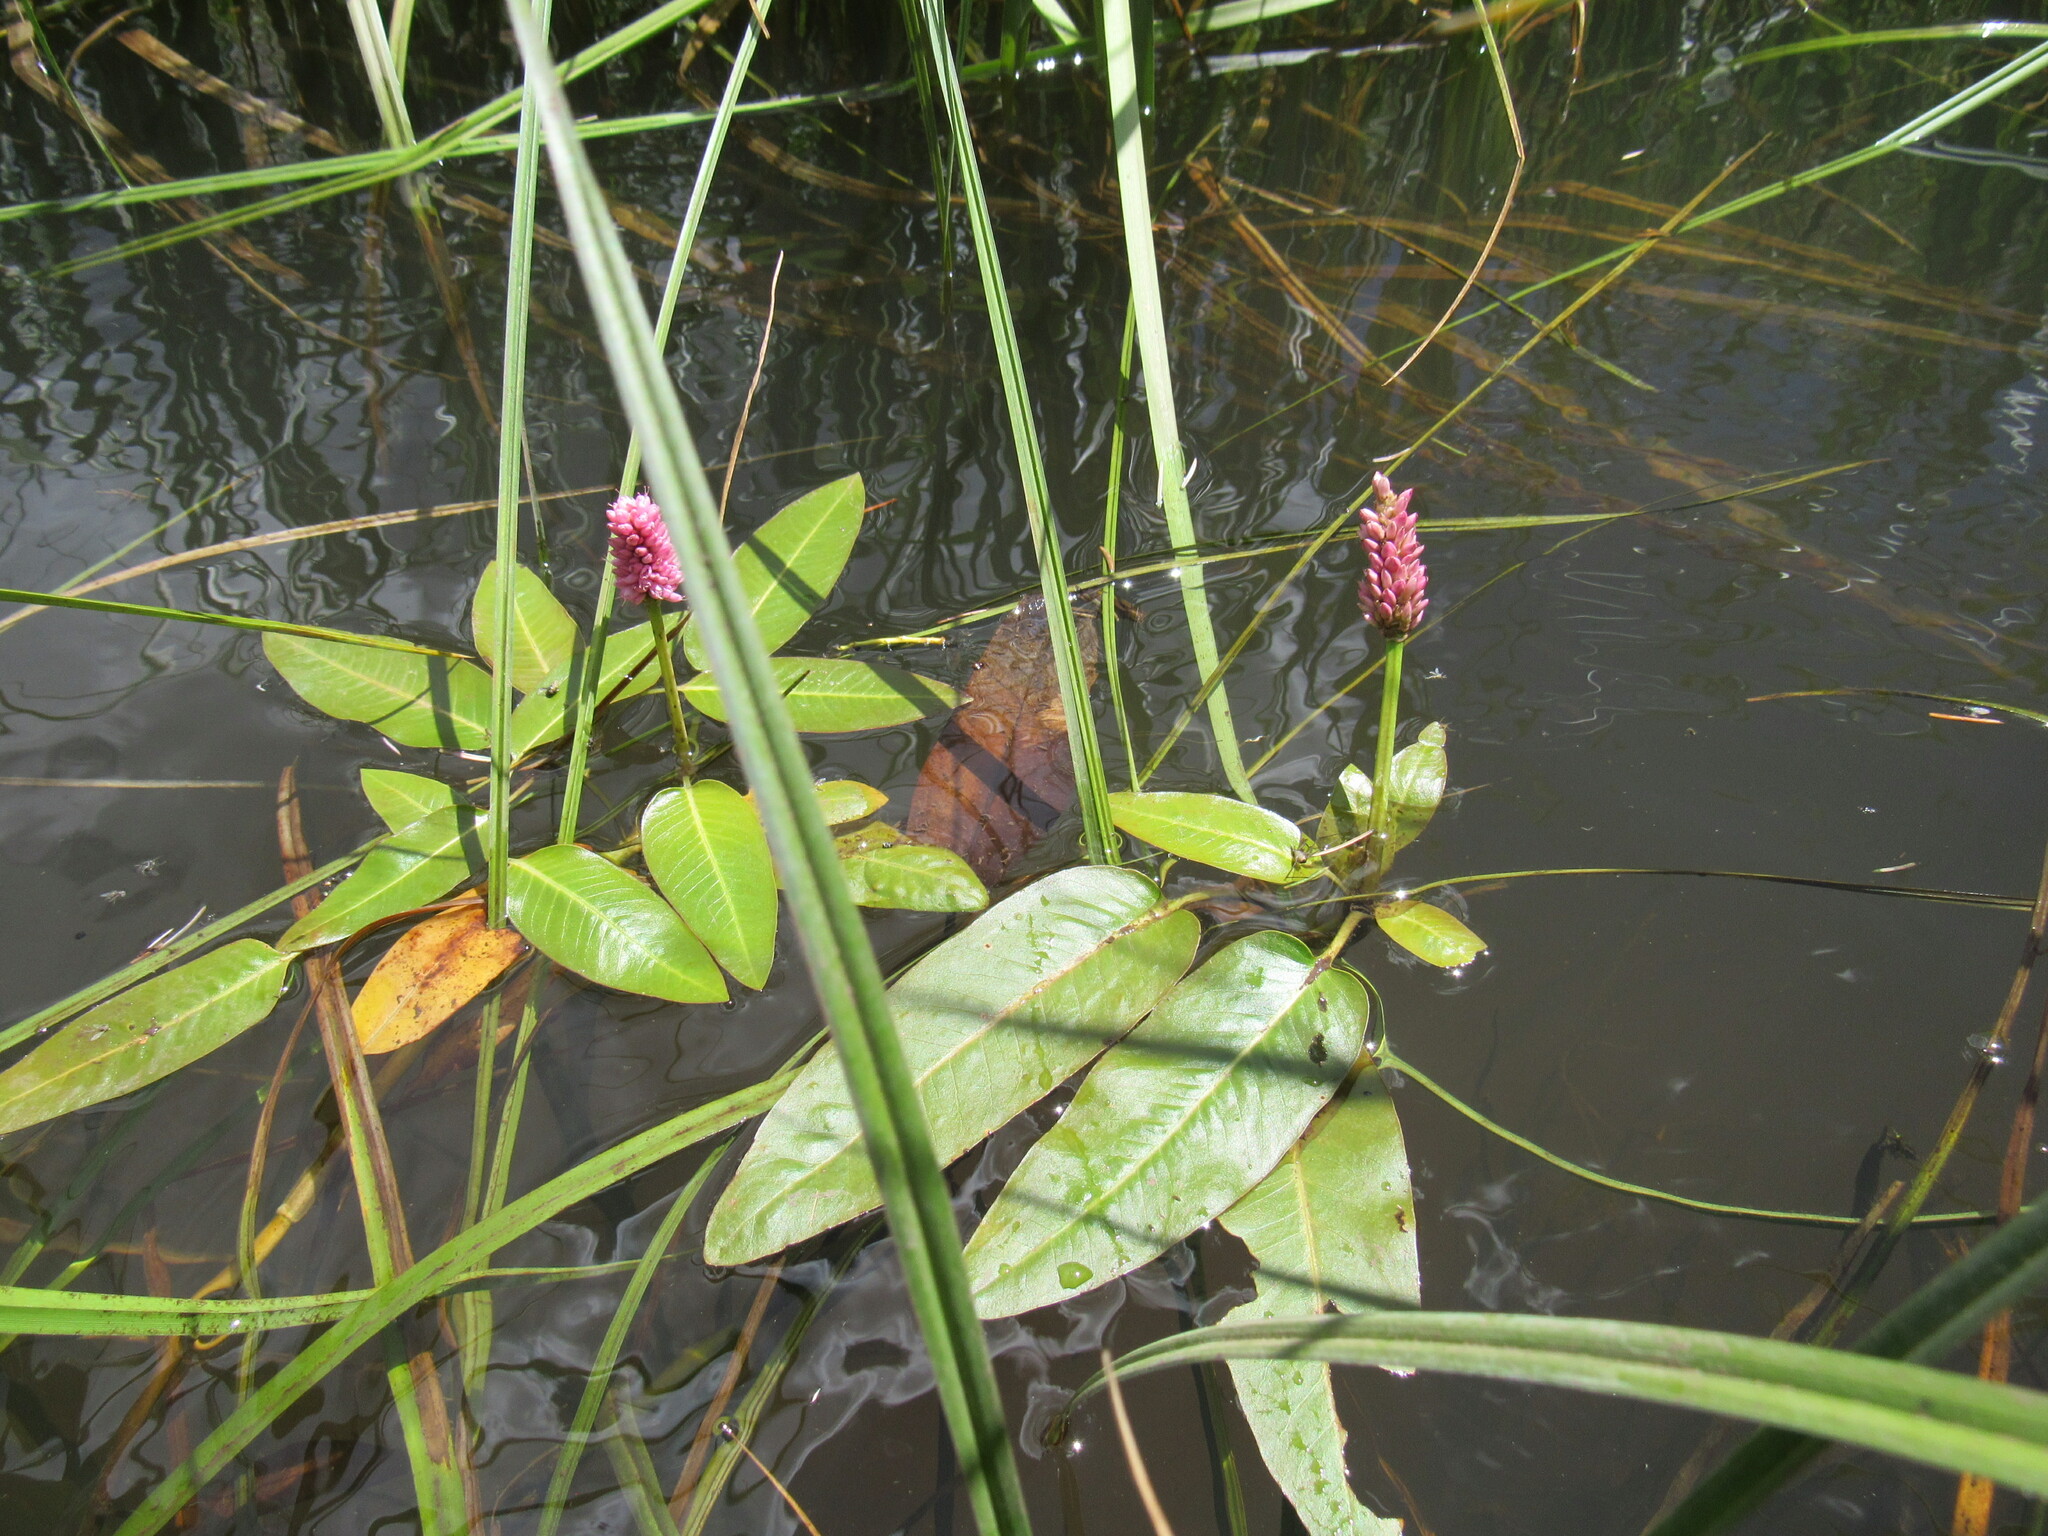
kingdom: Plantae
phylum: Tracheophyta
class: Magnoliopsida
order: Caryophyllales
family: Polygonaceae
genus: Persicaria
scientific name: Persicaria amphibia
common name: Amphibious bistort
